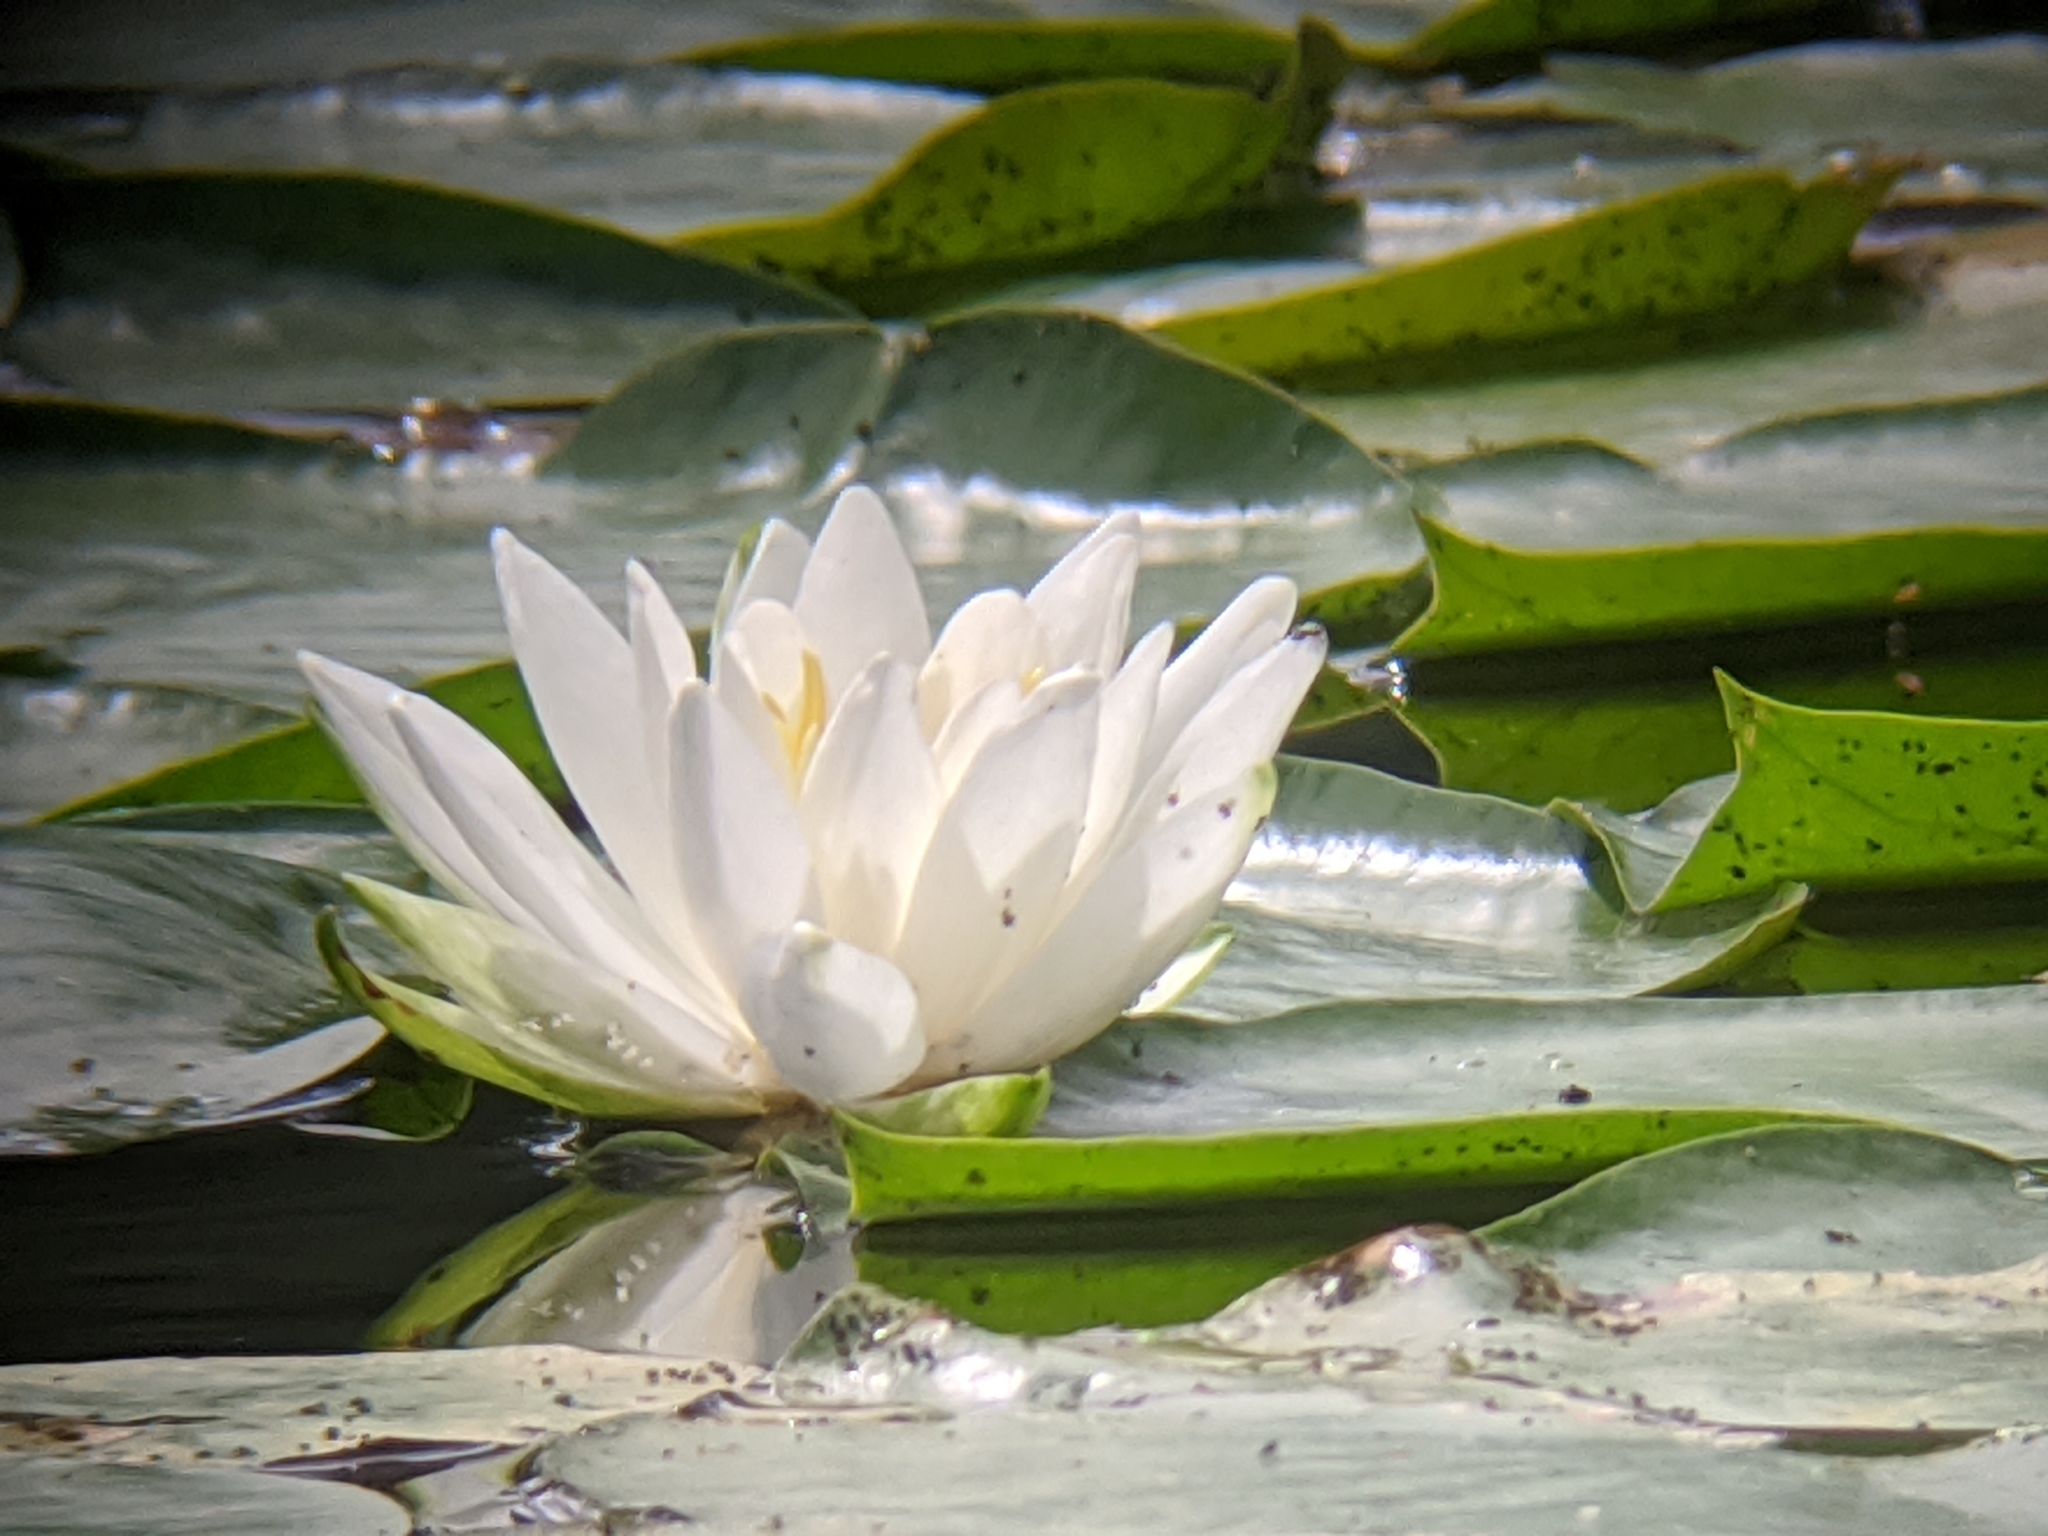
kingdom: Plantae
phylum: Tracheophyta
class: Magnoliopsida
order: Nymphaeales
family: Nymphaeaceae
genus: Nymphaea
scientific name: Nymphaea odorata
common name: Fragrant water-lily
